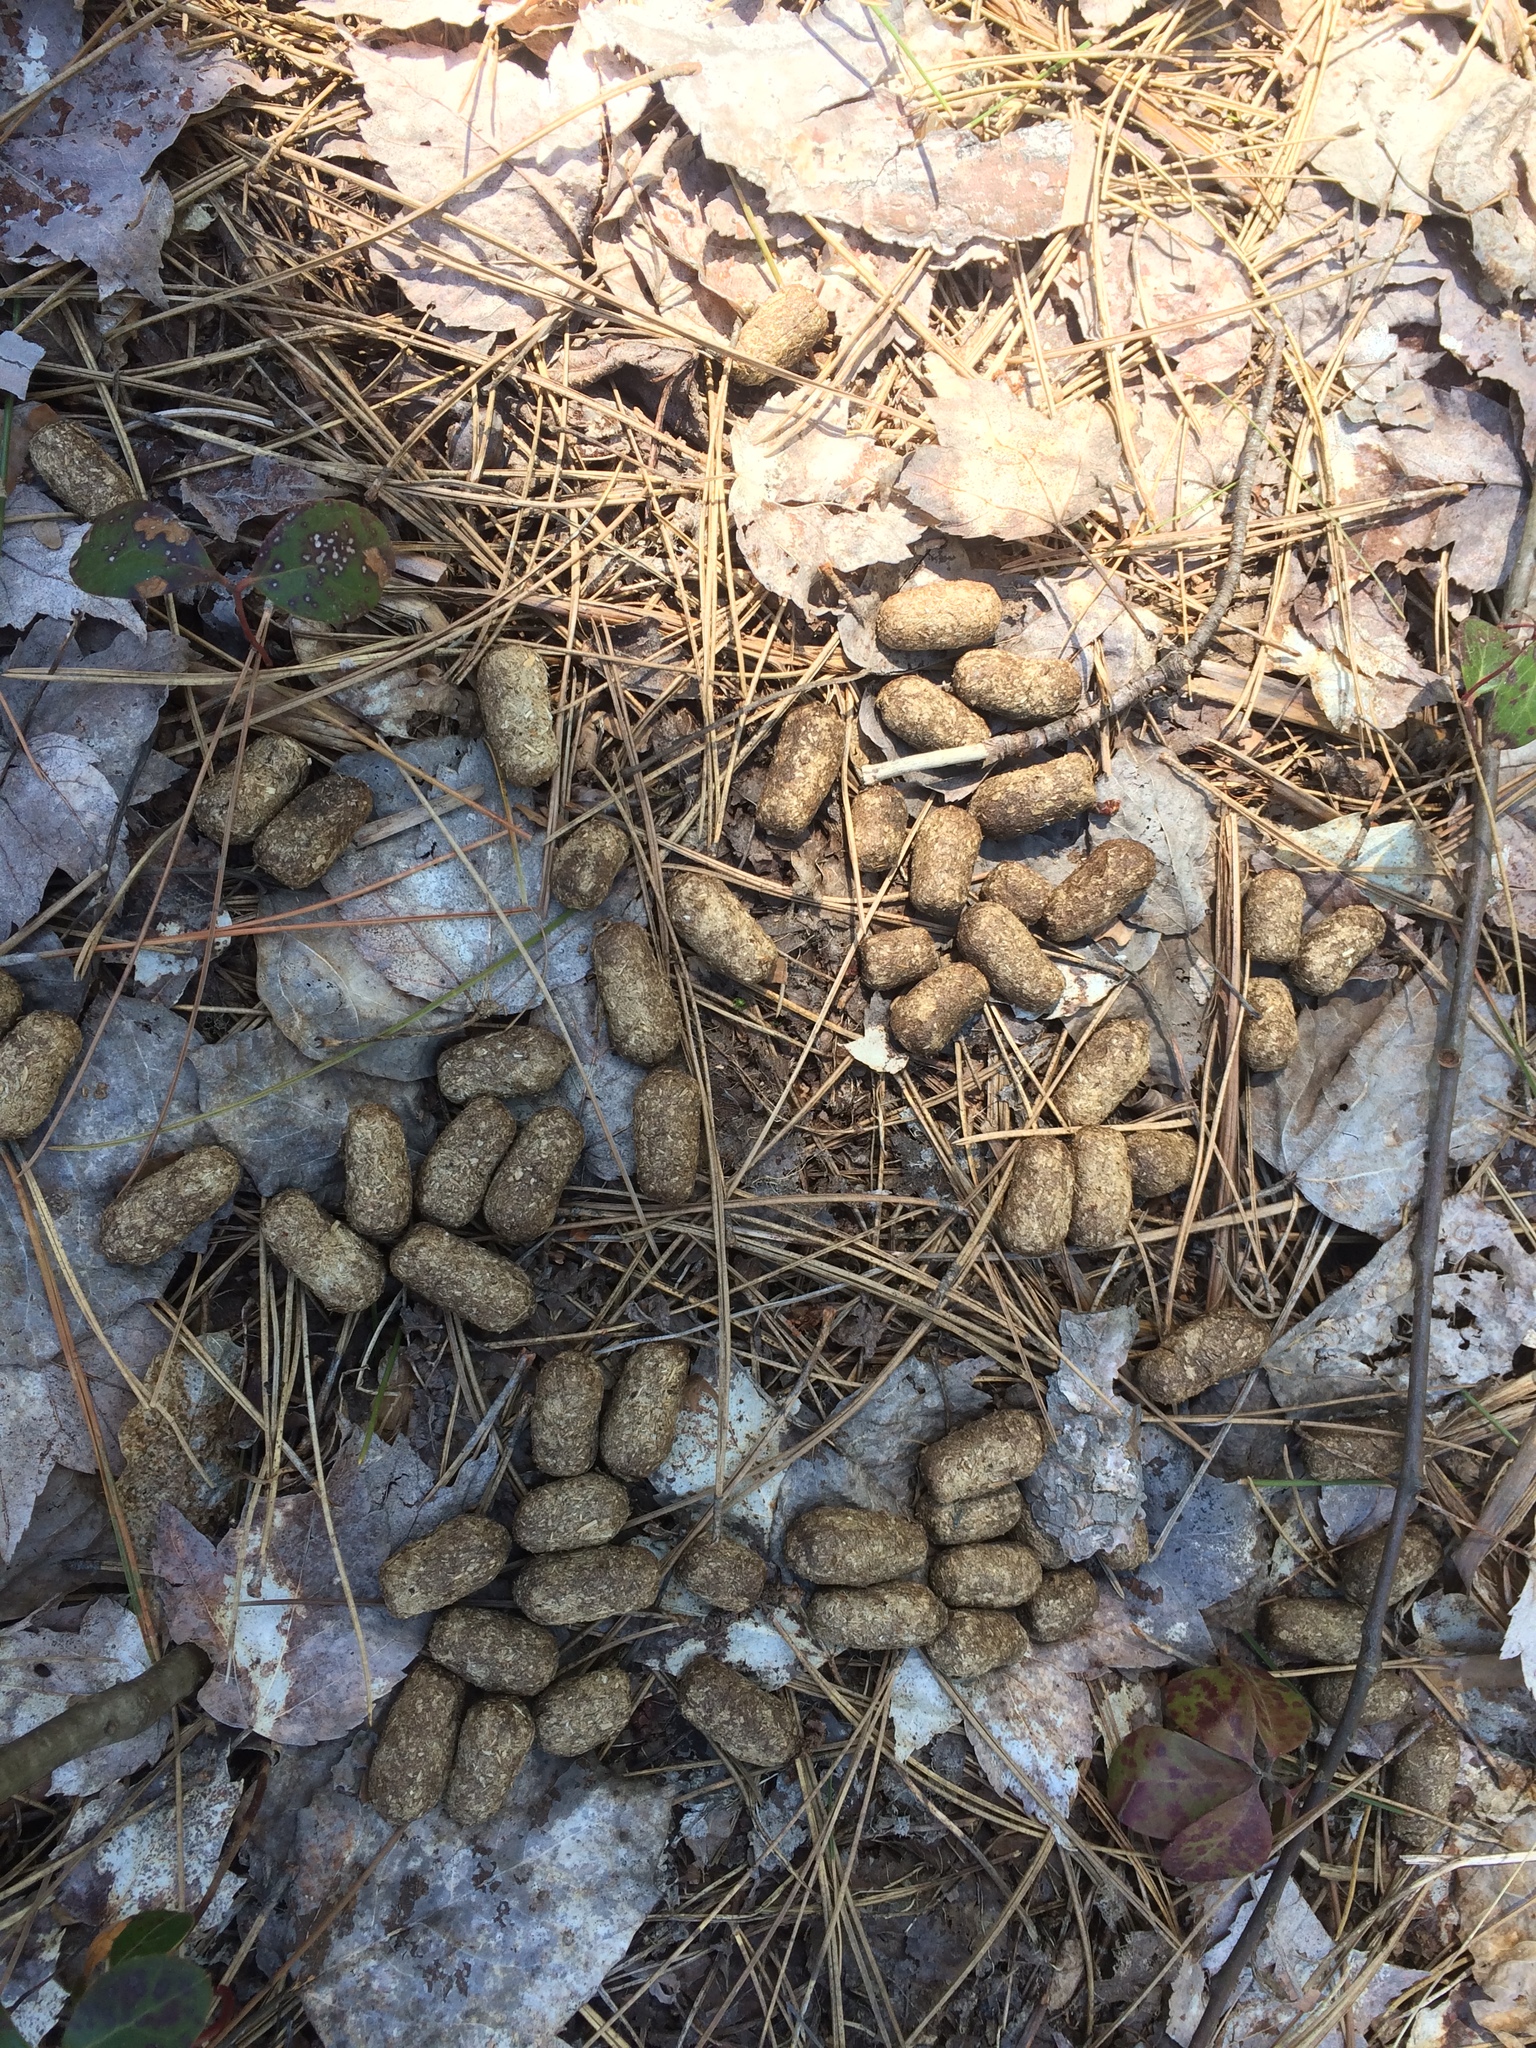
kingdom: Animalia
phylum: Chordata
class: Mammalia
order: Rodentia
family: Erethizontidae
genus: Erethizon
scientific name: Erethizon dorsatus
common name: North american porcupine
